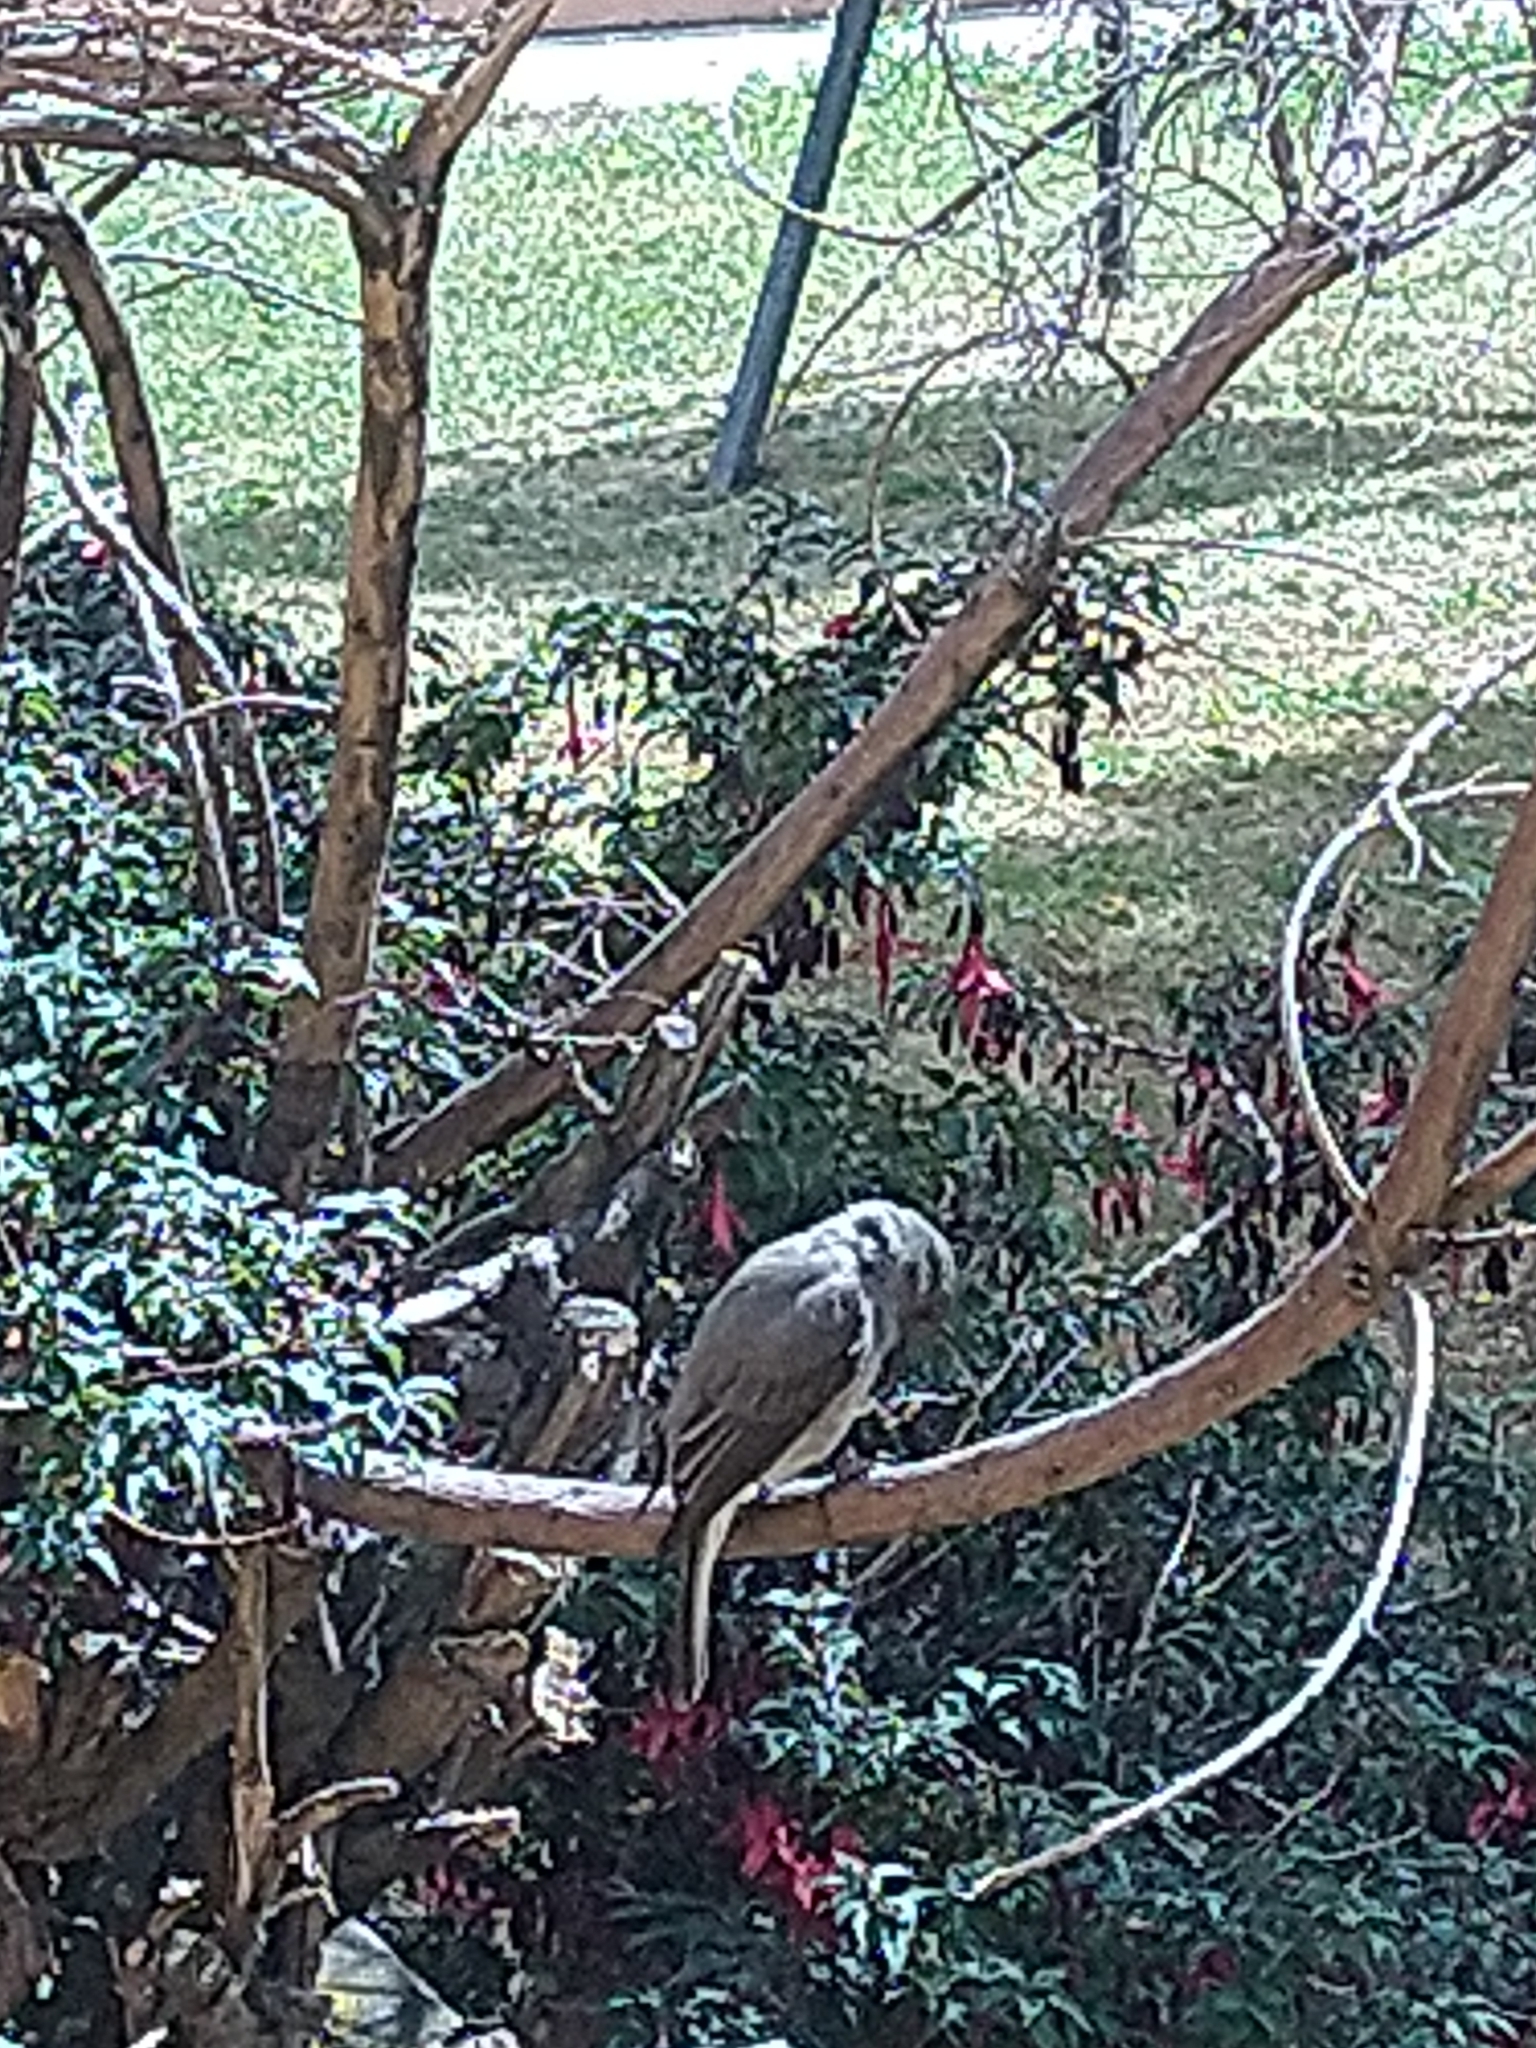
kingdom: Animalia
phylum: Chordata
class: Aves
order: Passeriformes
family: Tyrannidae
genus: Xolmis
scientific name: Xolmis pyrope
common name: Fire-eyed diucon
